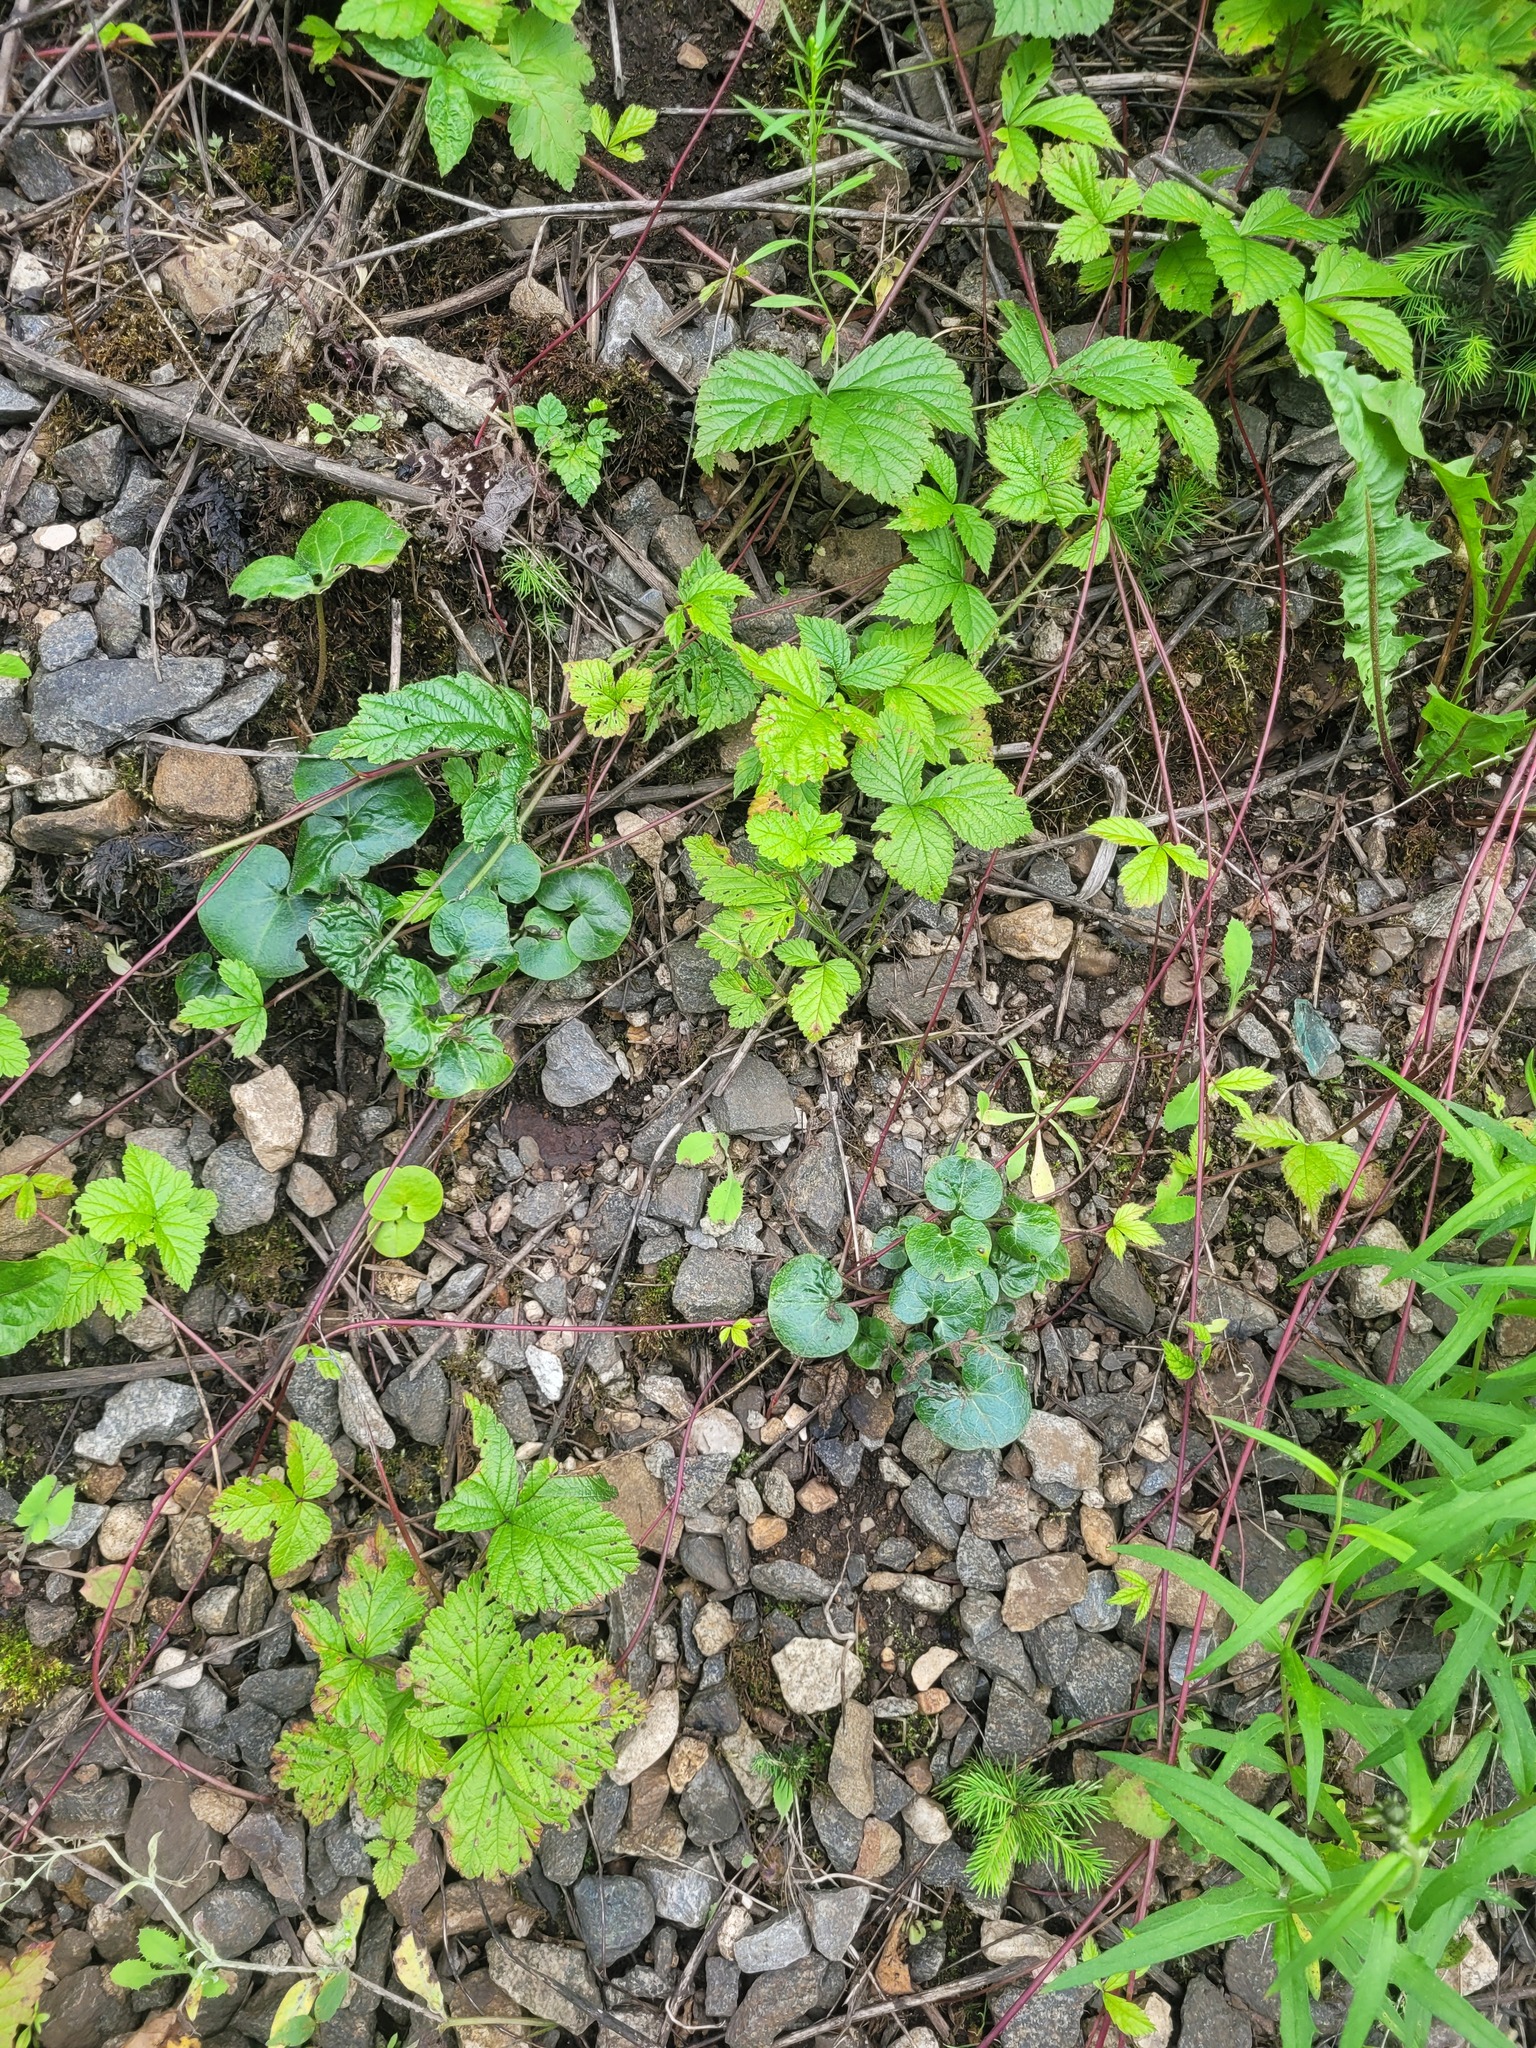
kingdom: Plantae
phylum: Tracheophyta
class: Magnoliopsida
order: Piperales
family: Aristolochiaceae
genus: Asarum
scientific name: Asarum europaeum
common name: Asarabacca
